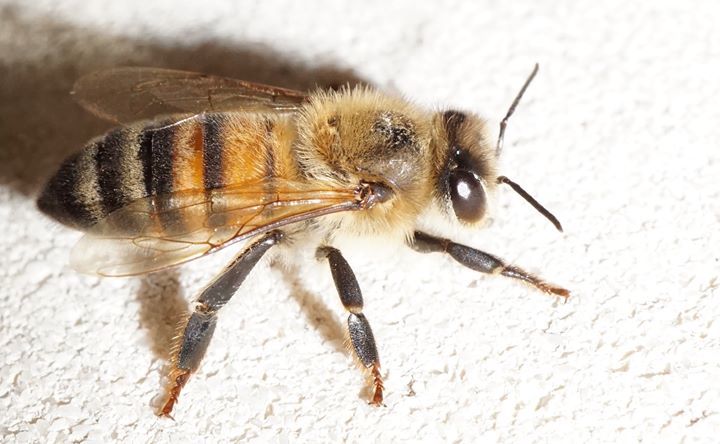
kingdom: Animalia
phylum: Arthropoda
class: Insecta
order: Hymenoptera
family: Apidae
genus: Apis
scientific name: Apis mellifera
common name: Honey bee
